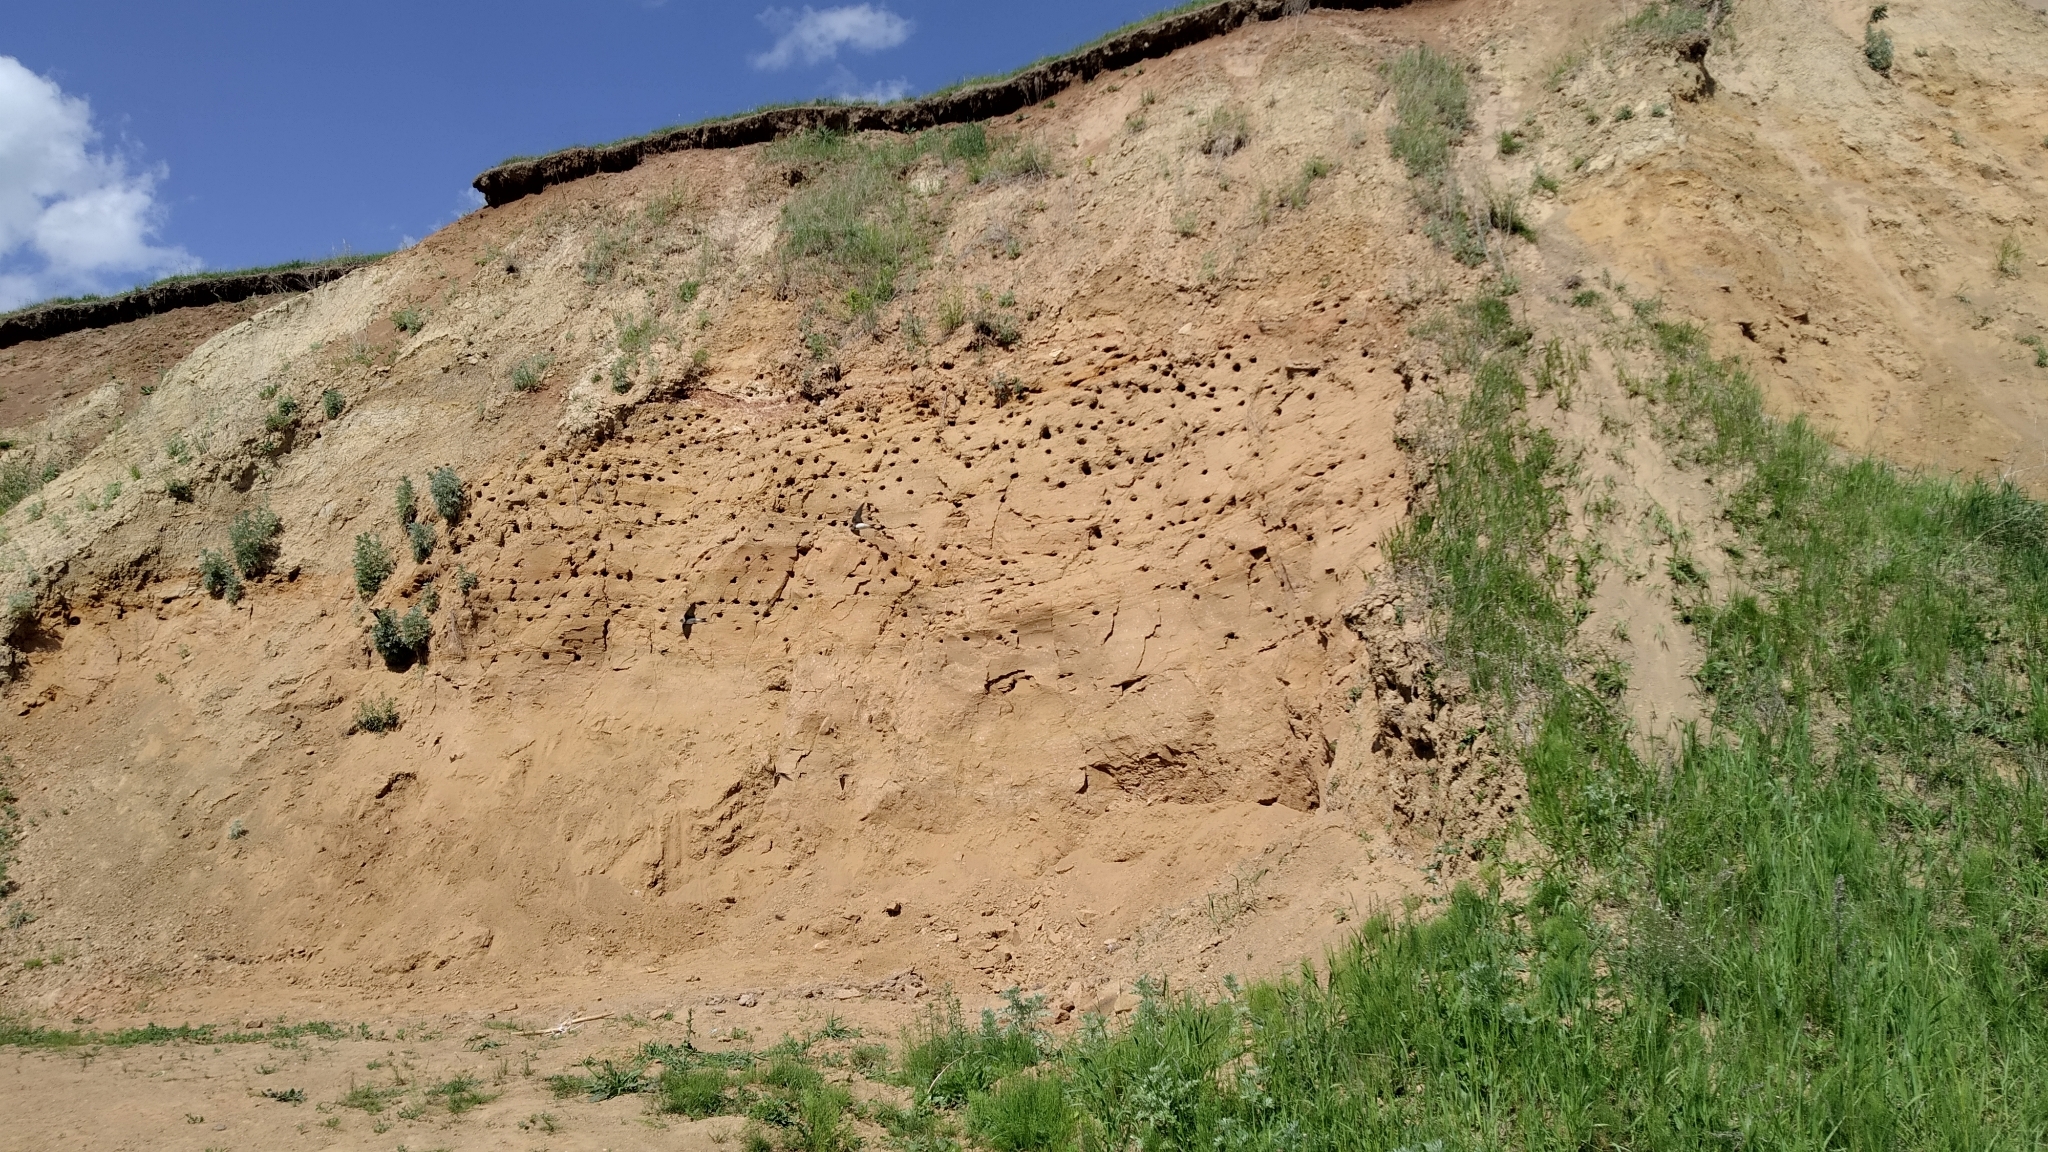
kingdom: Animalia
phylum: Chordata
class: Aves
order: Passeriformes
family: Hirundinidae
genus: Riparia
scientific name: Riparia riparia
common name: Sand martin
